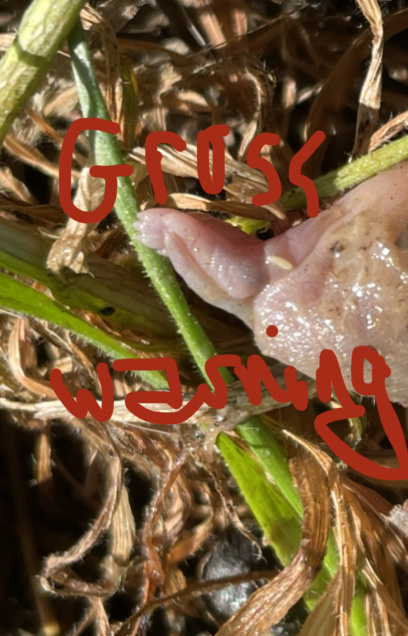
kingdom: Animalia
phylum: Chordata
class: Mammalia
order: Didelphimorphia
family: Didelphidae
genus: Didelphis
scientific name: Didelphis virginiana
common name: Virginia opossum
